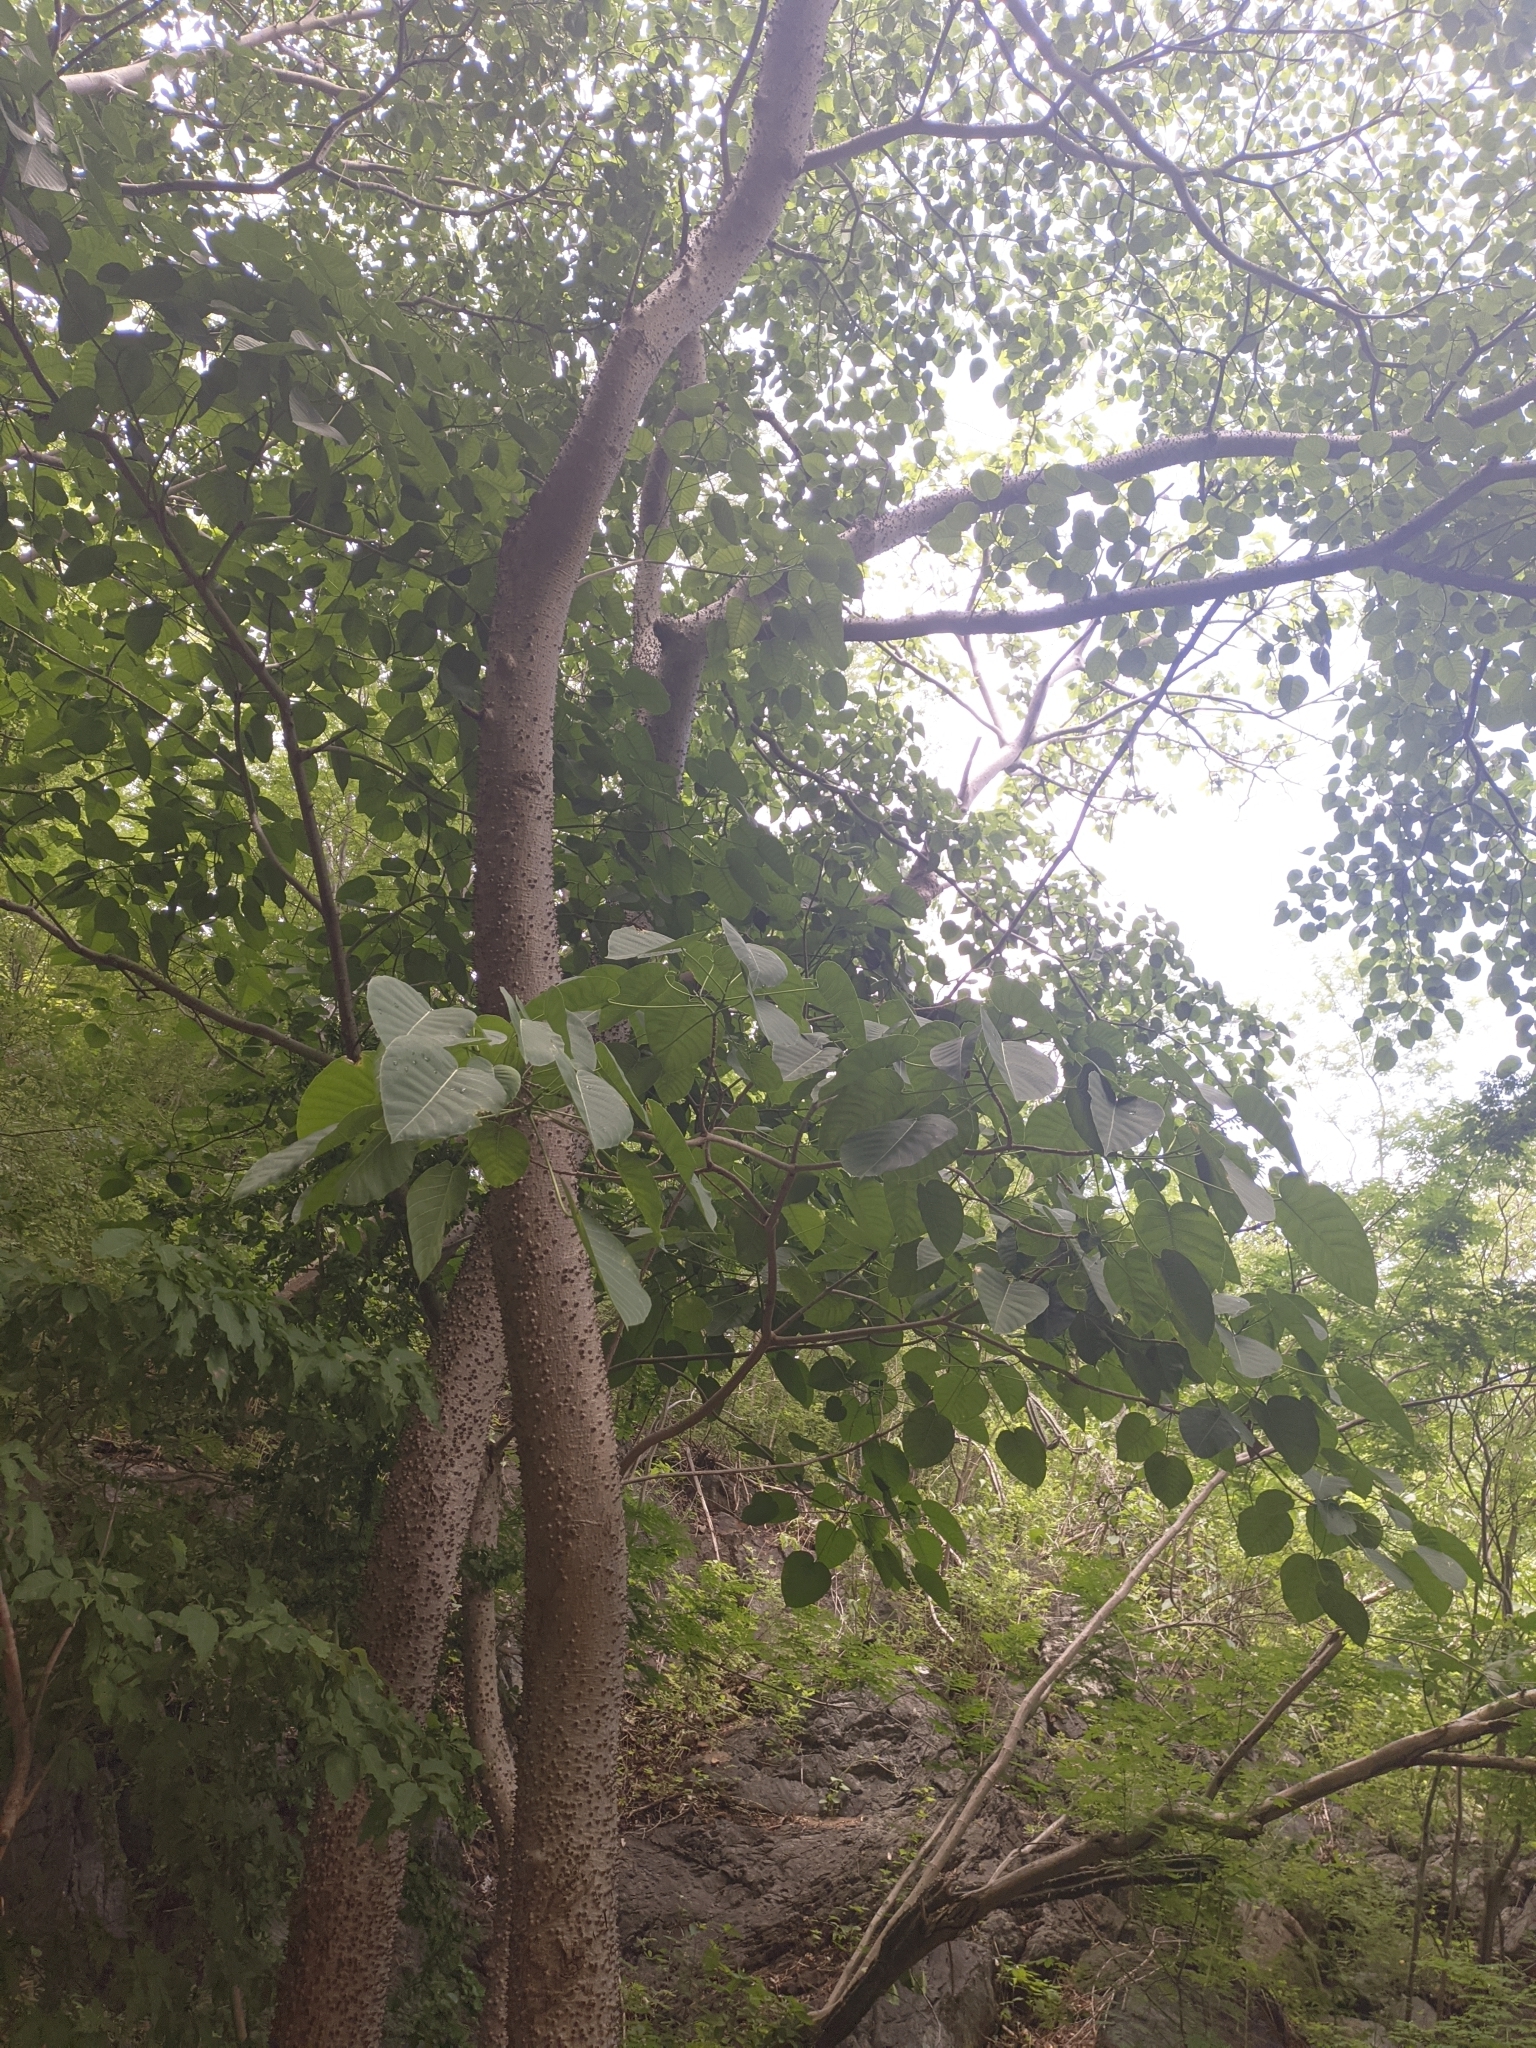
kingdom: Plantae
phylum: Tracheophyta
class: Magnoliopsida
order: Malpighiales
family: Euphorbiaceae
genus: Hura
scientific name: Hura crepitans
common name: Sandboxtree
